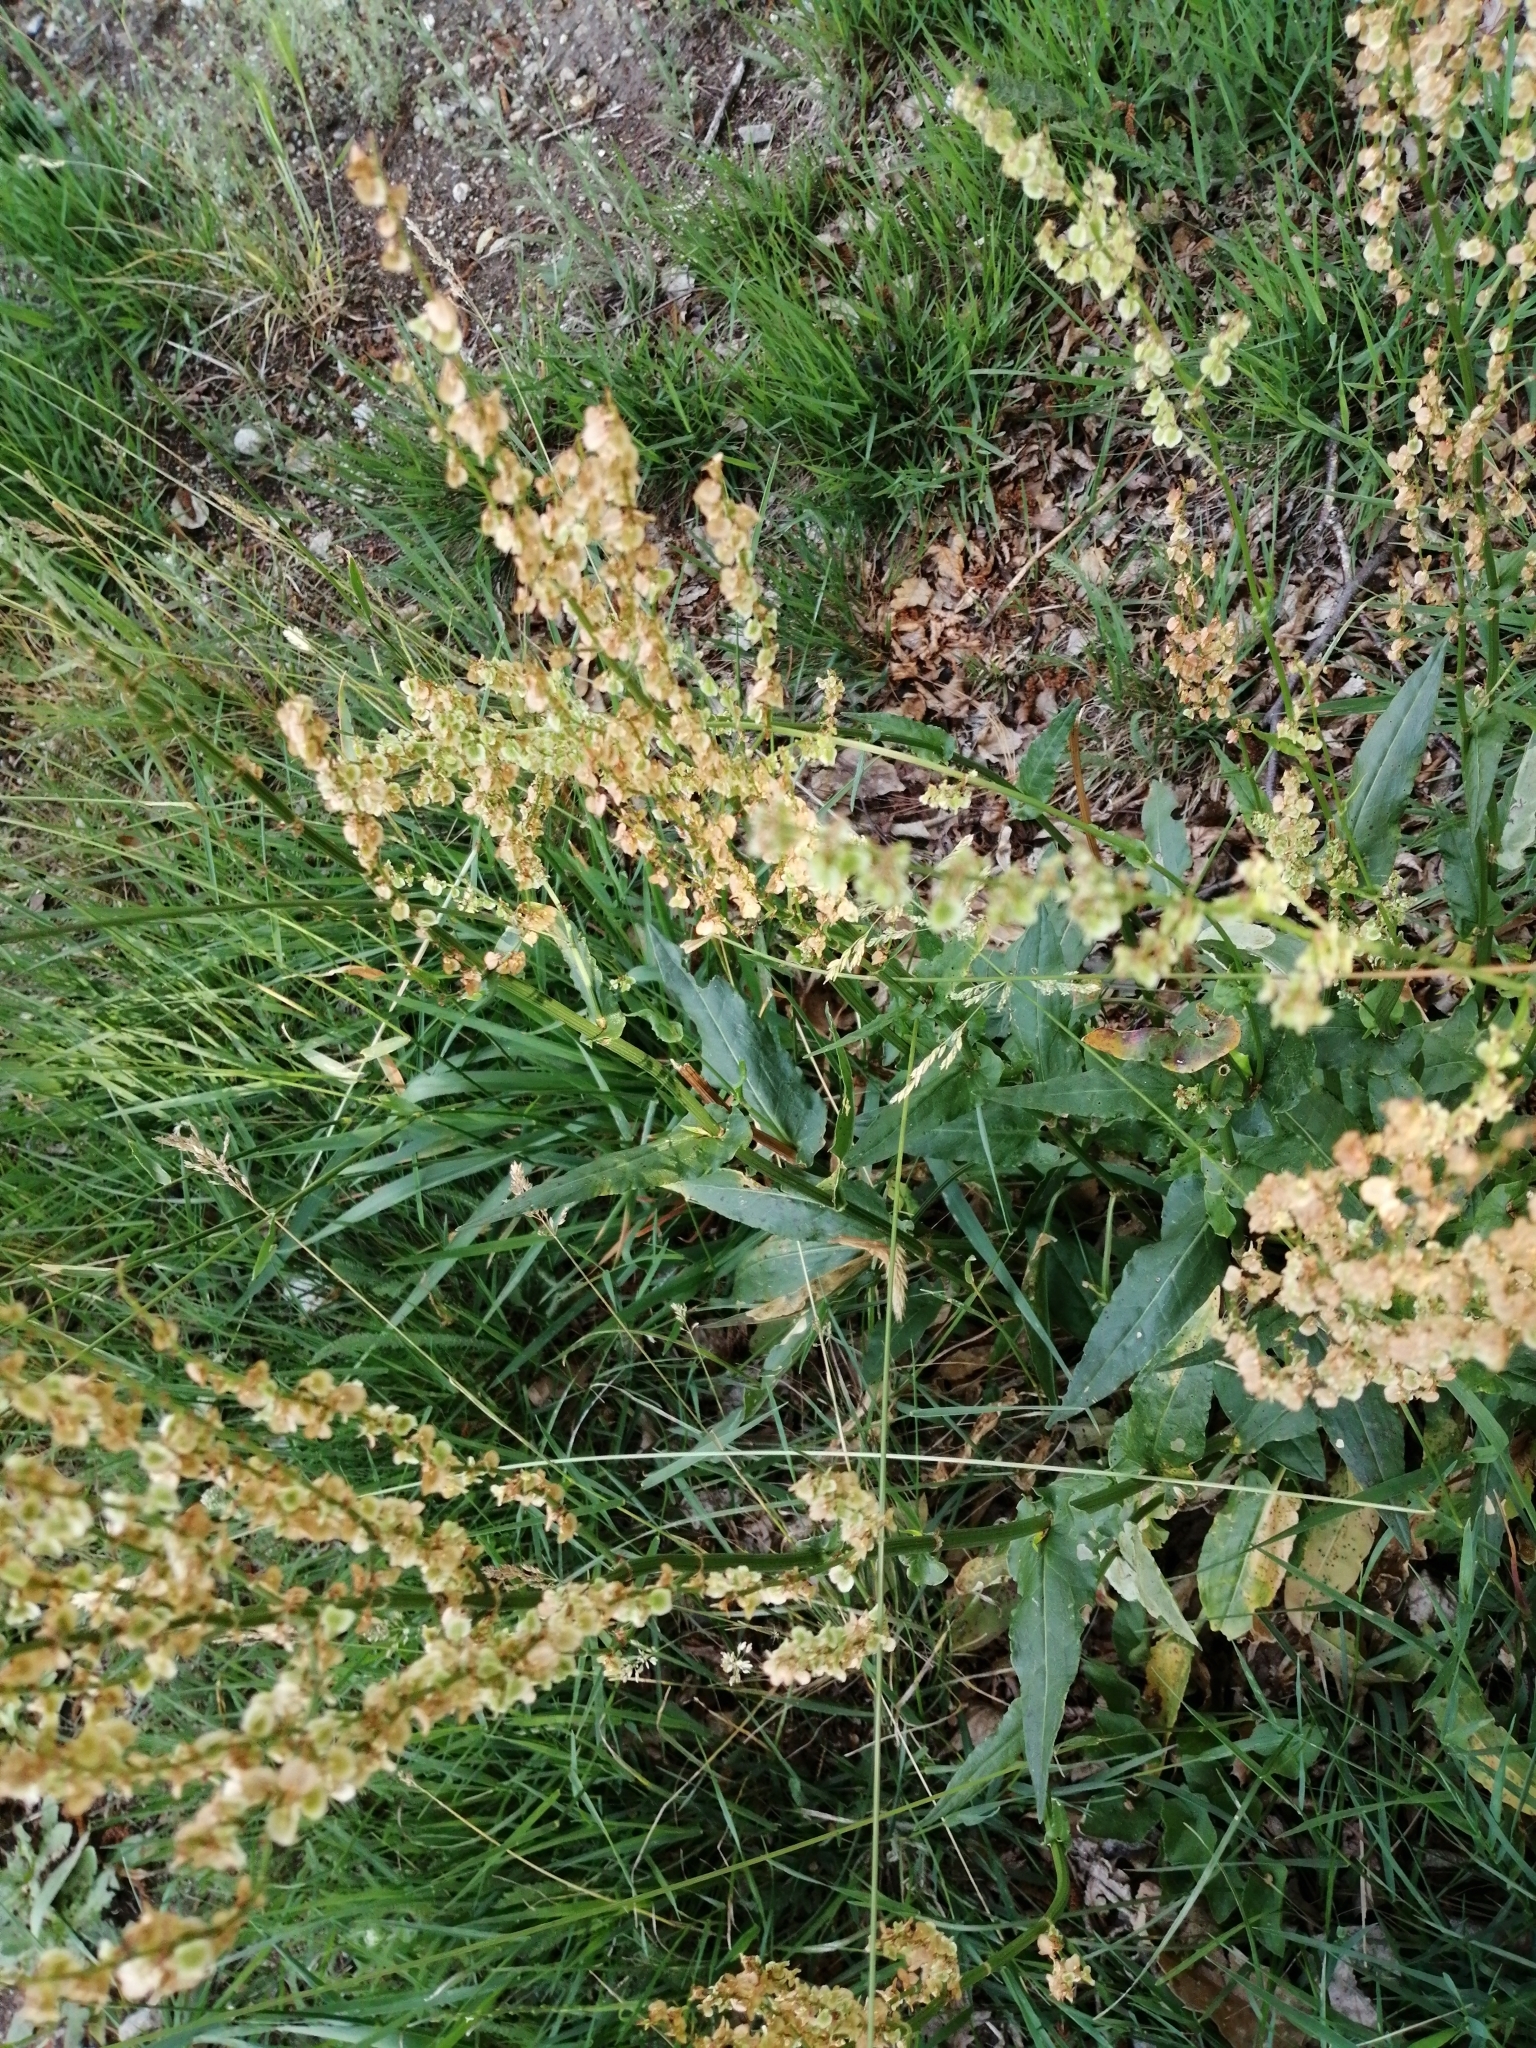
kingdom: Plantae
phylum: Tracheophyta
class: Magnoliopsida
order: Caryophyllales
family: Polygonaceae
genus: Rumex
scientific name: Rumex acetosa
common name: Garden sorrel
